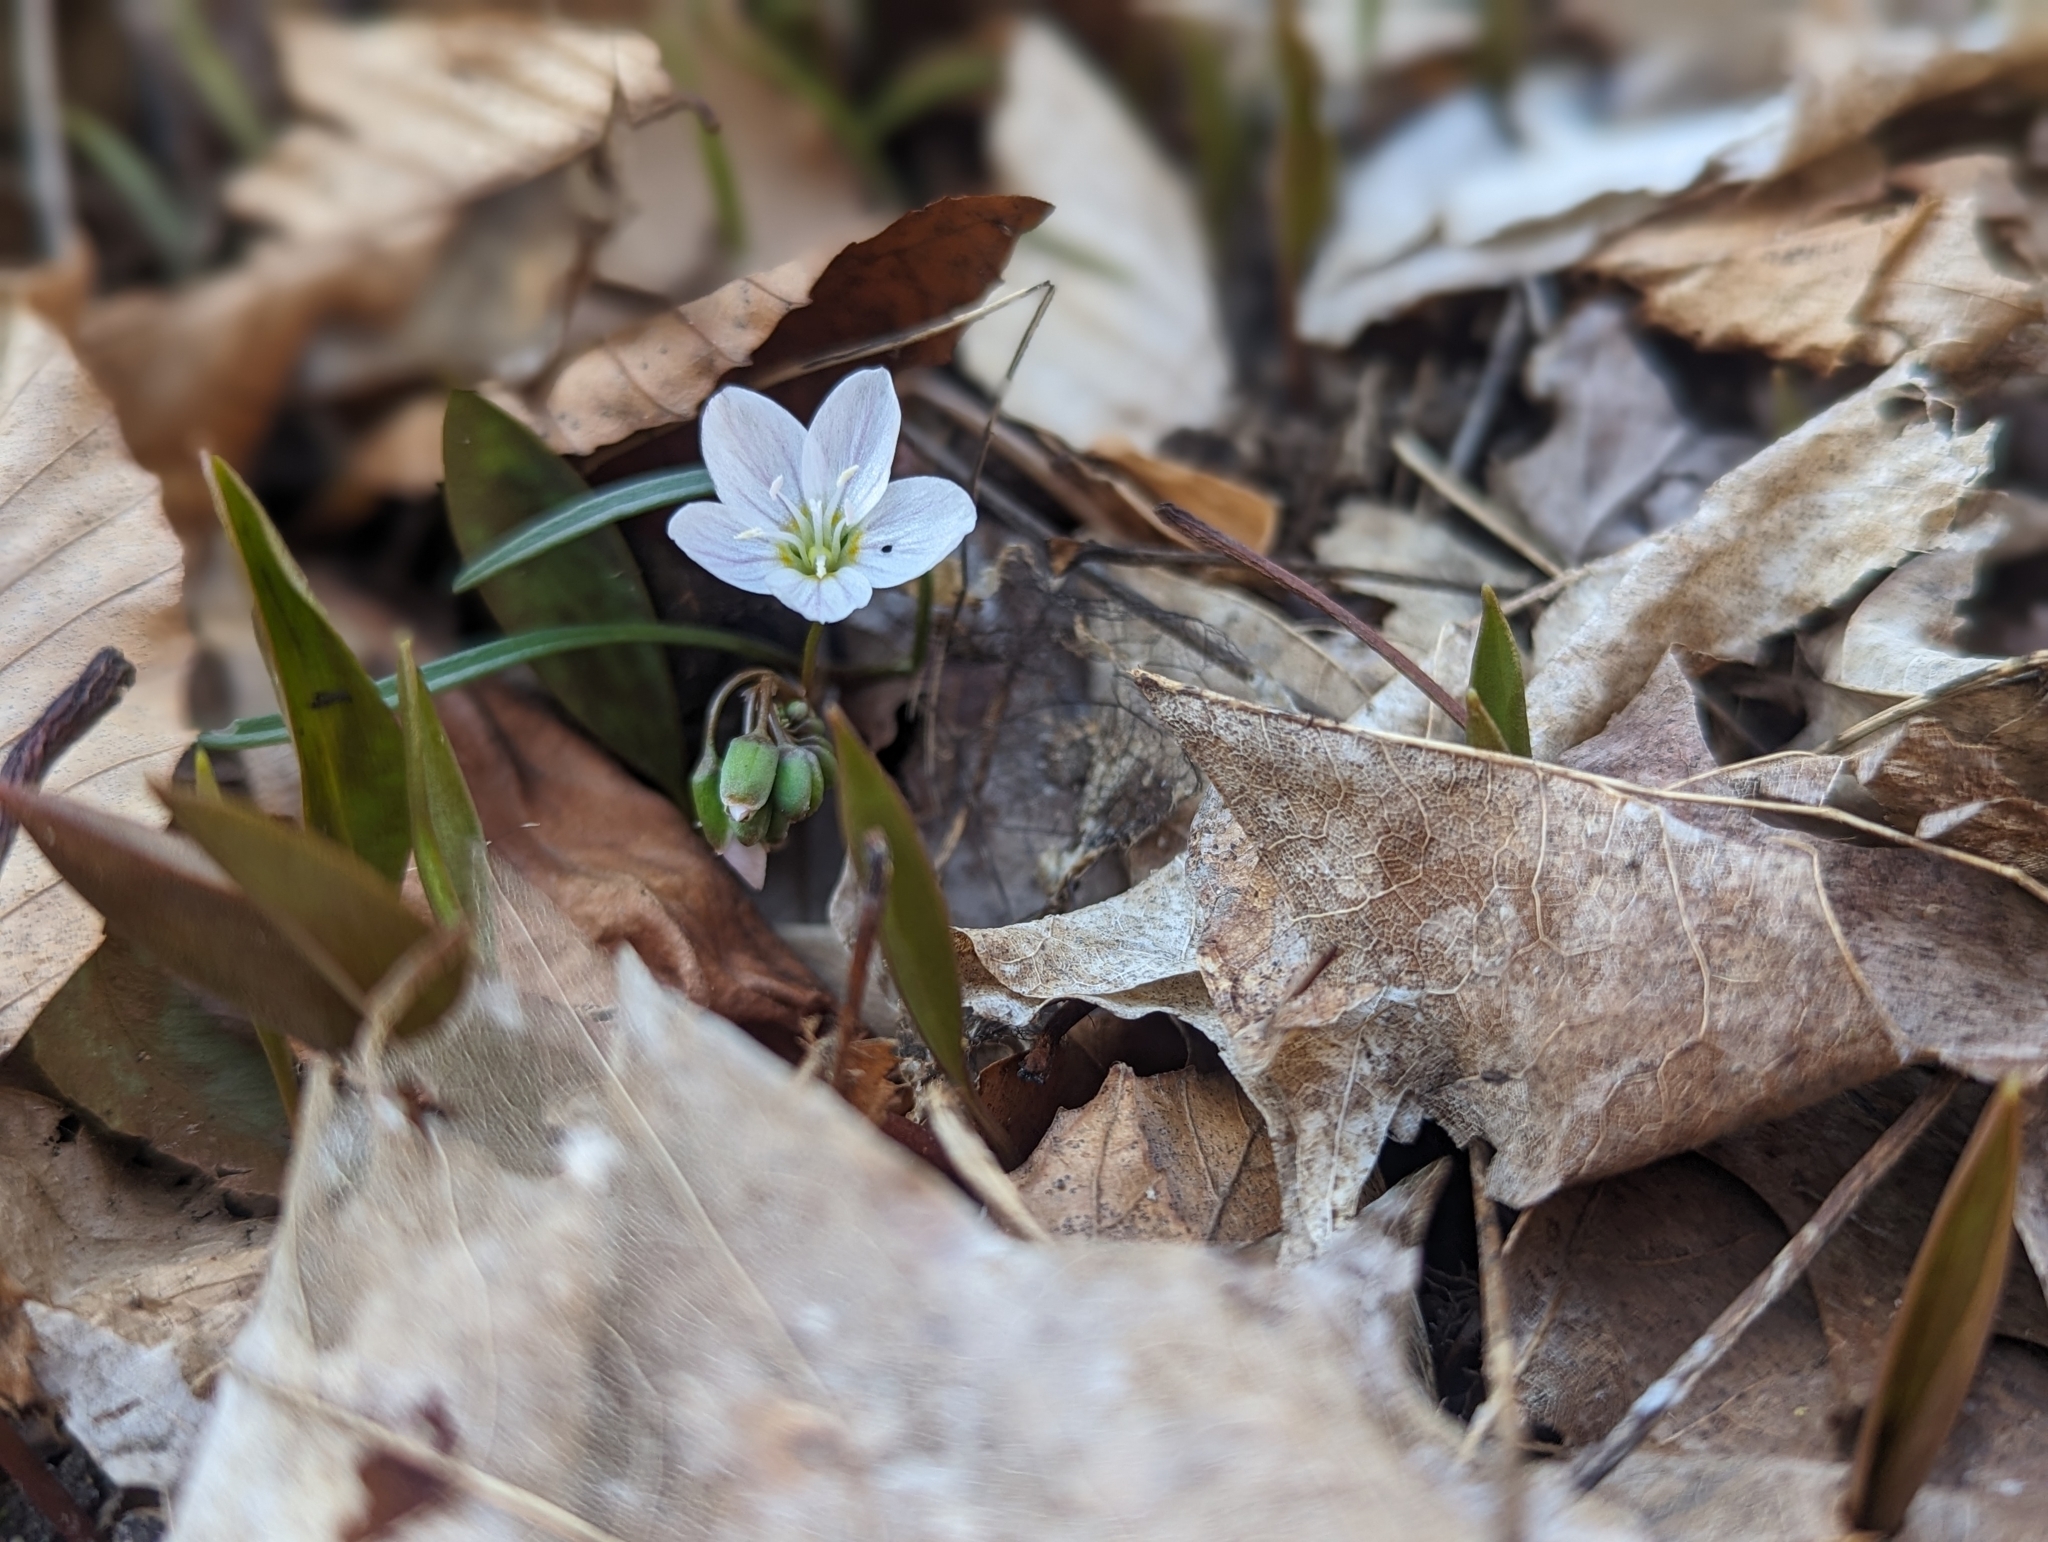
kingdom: Plantae
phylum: Tracheophyta
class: Magnoliopsida
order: Caryophyllales
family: Montiaceae
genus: Claytonia
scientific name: Claytonia virginica
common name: Virginia springbeauty
